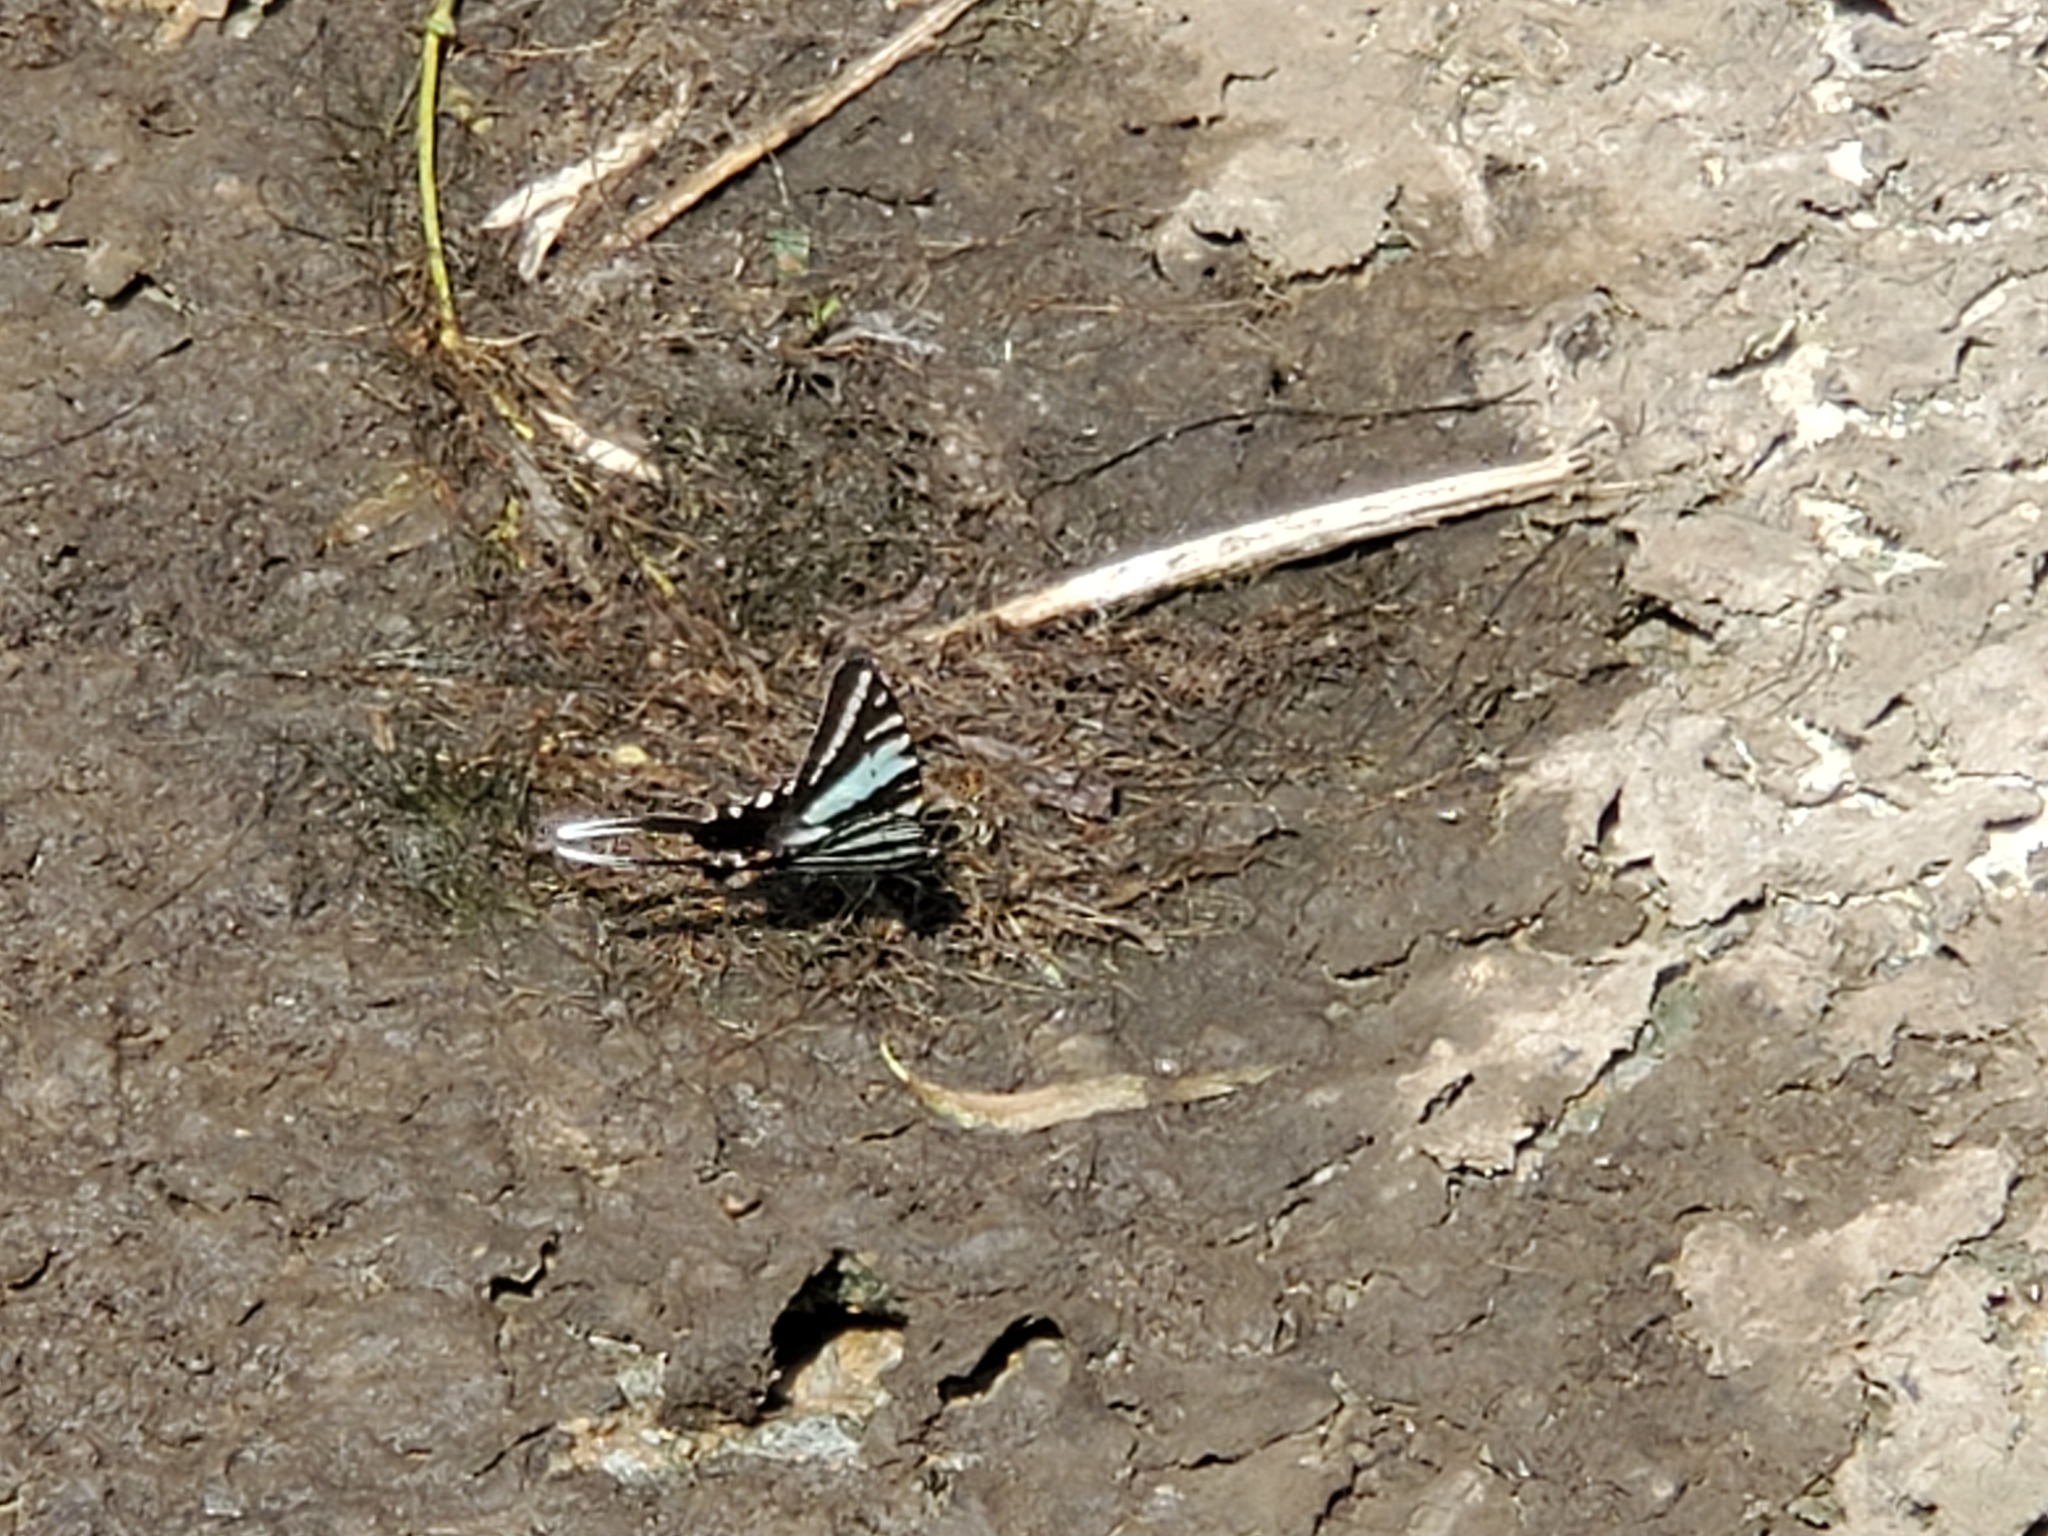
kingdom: Animalia
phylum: Arthropoda
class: Insecta
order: Lepidoptera
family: Papilionidae
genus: Protographium
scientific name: Protographium marcellus
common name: Zebra swallowtail
